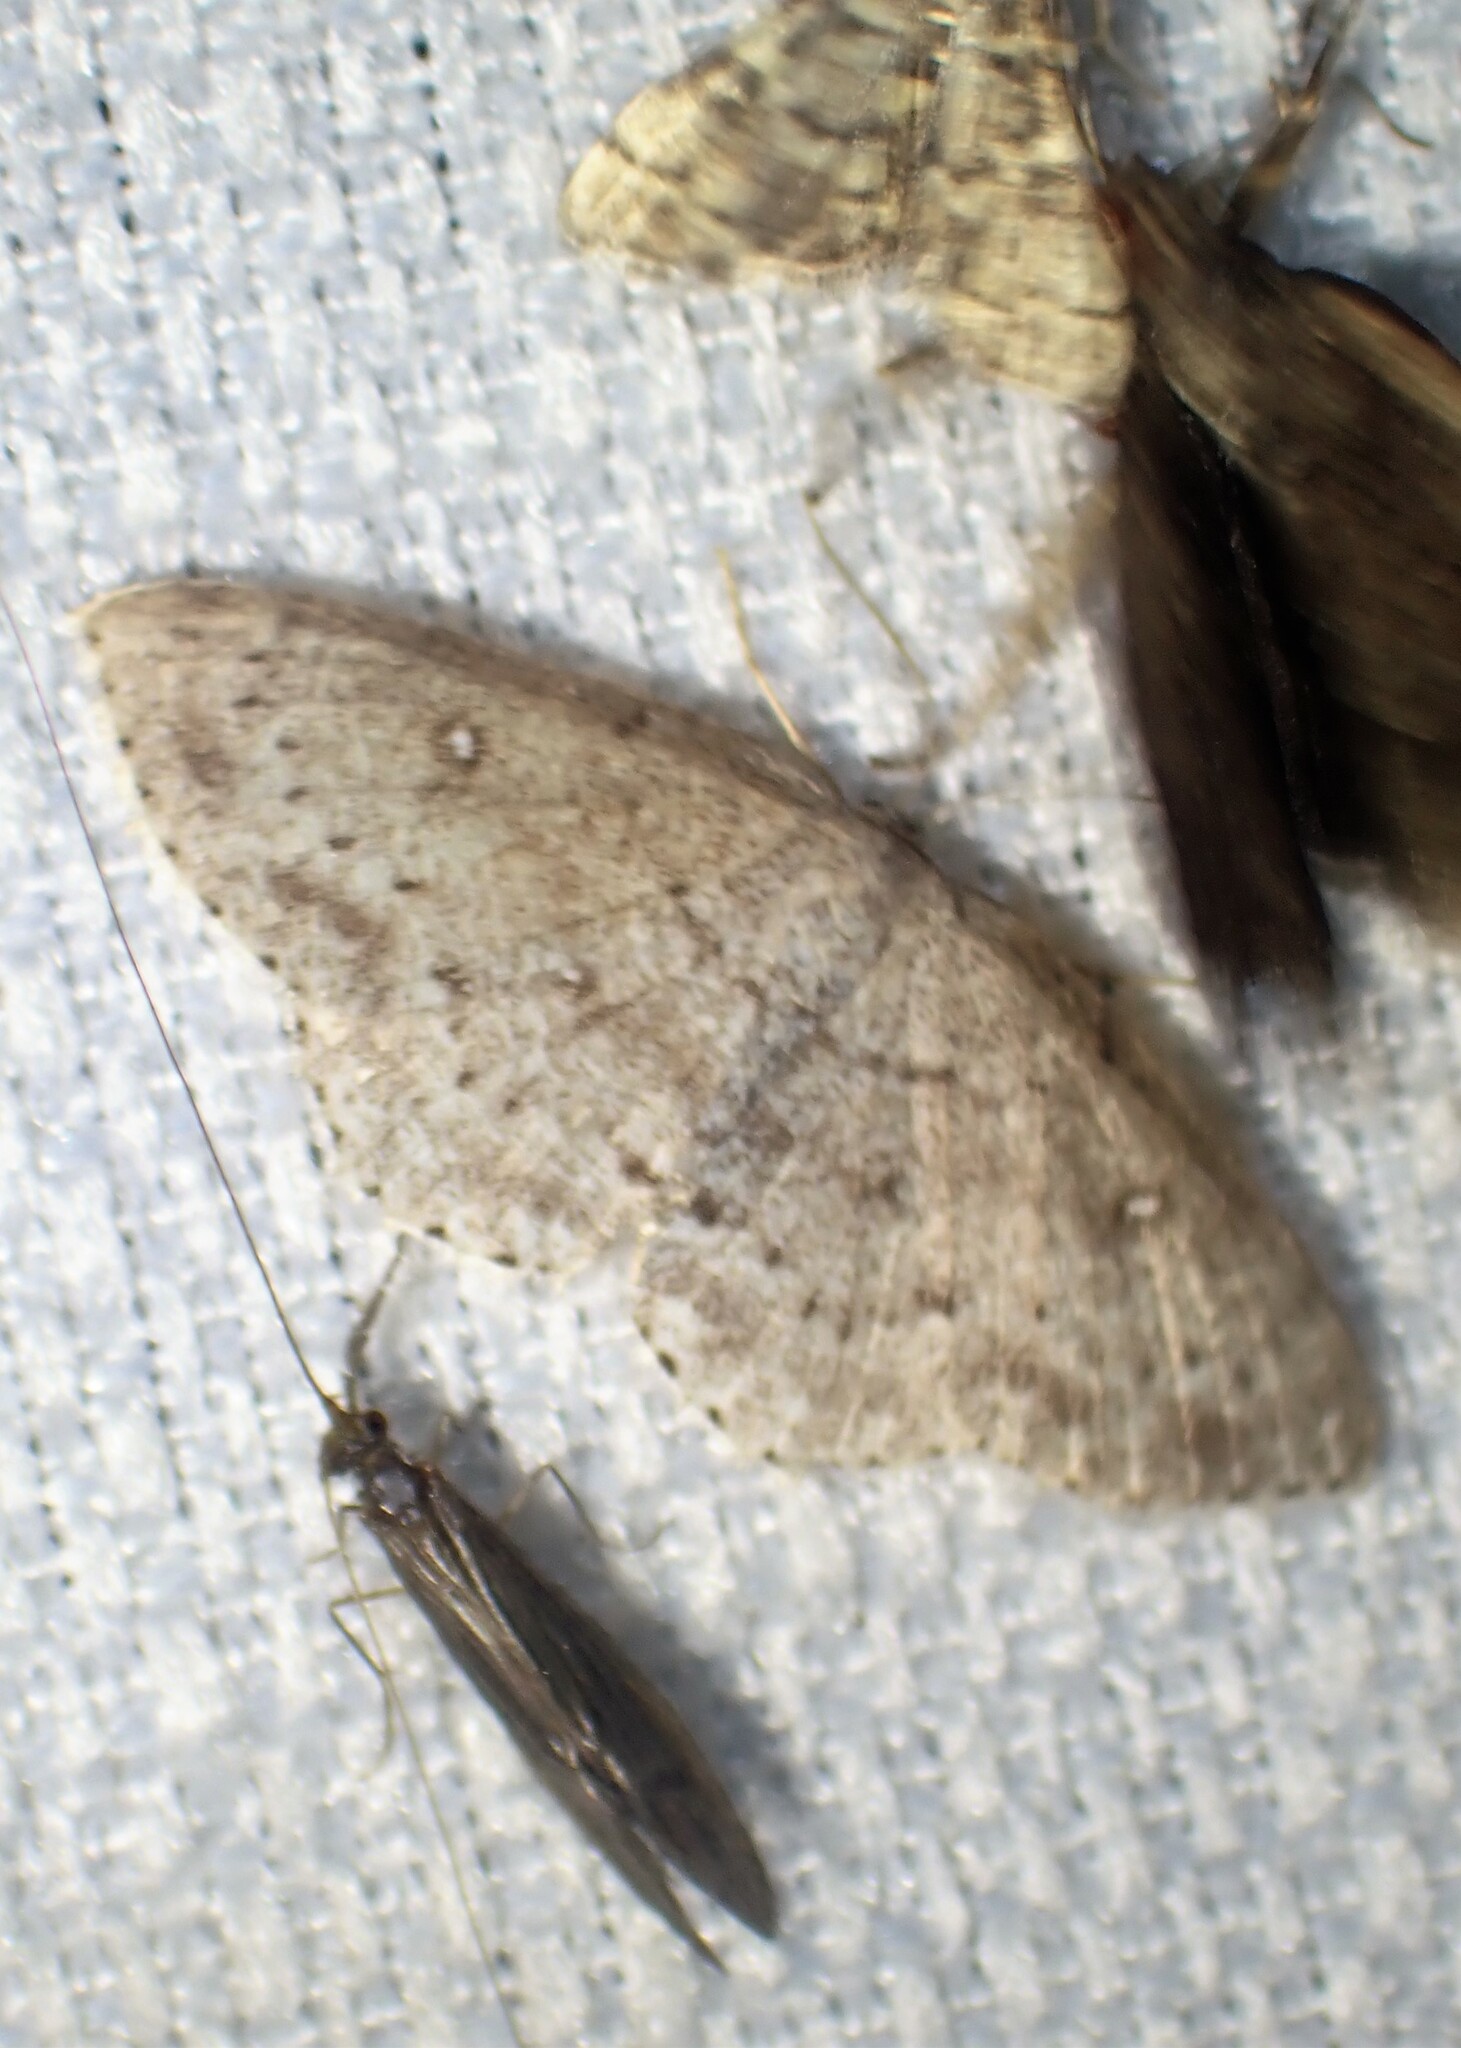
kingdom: Animalia
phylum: Arthropoda
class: Insecta
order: Lepidoptera
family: Geometridae
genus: Cyclophora
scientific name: Cyclophora pendulinaria
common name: Sweet fern geometer
